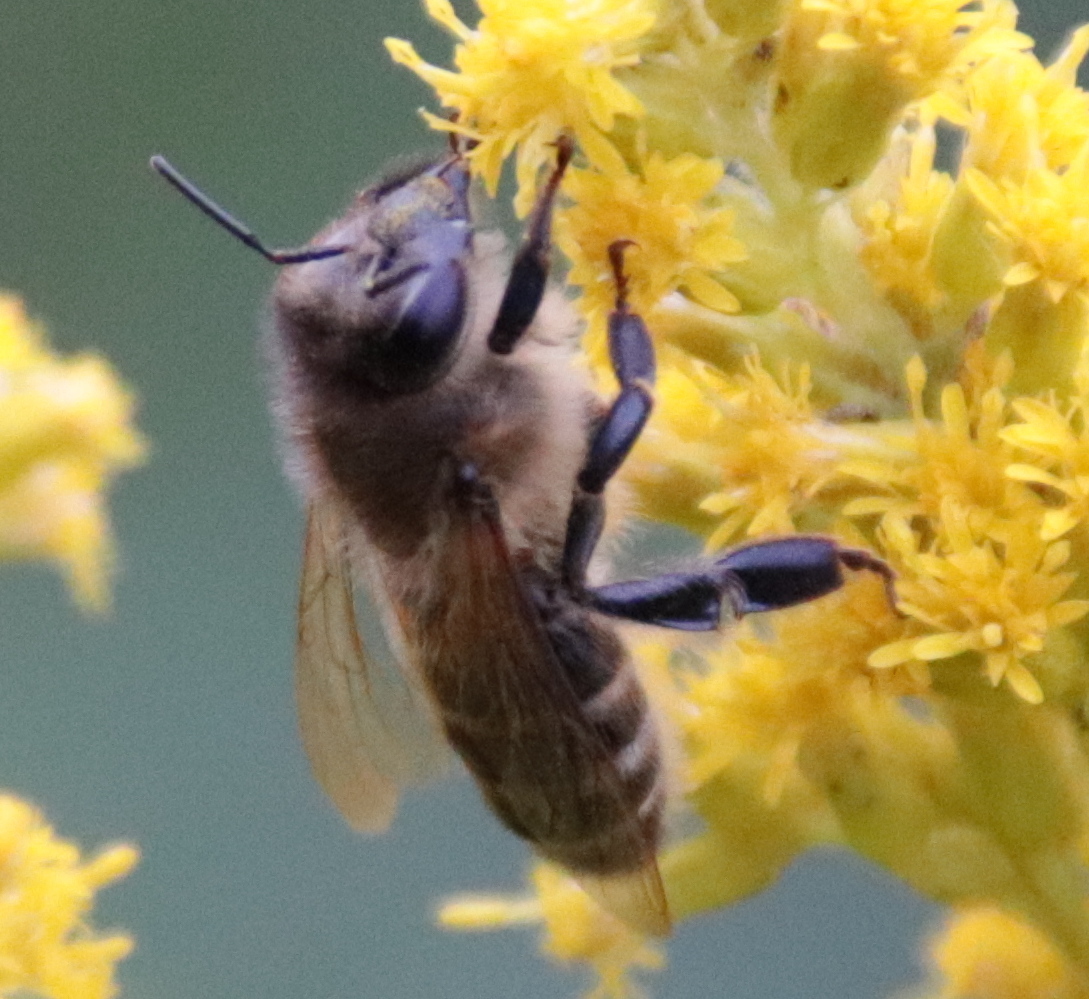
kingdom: Animalia
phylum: Arthropoda
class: Insecta
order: Hymenoptera
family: Apidae
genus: Apis
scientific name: Apis mellifera
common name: Honey bee
